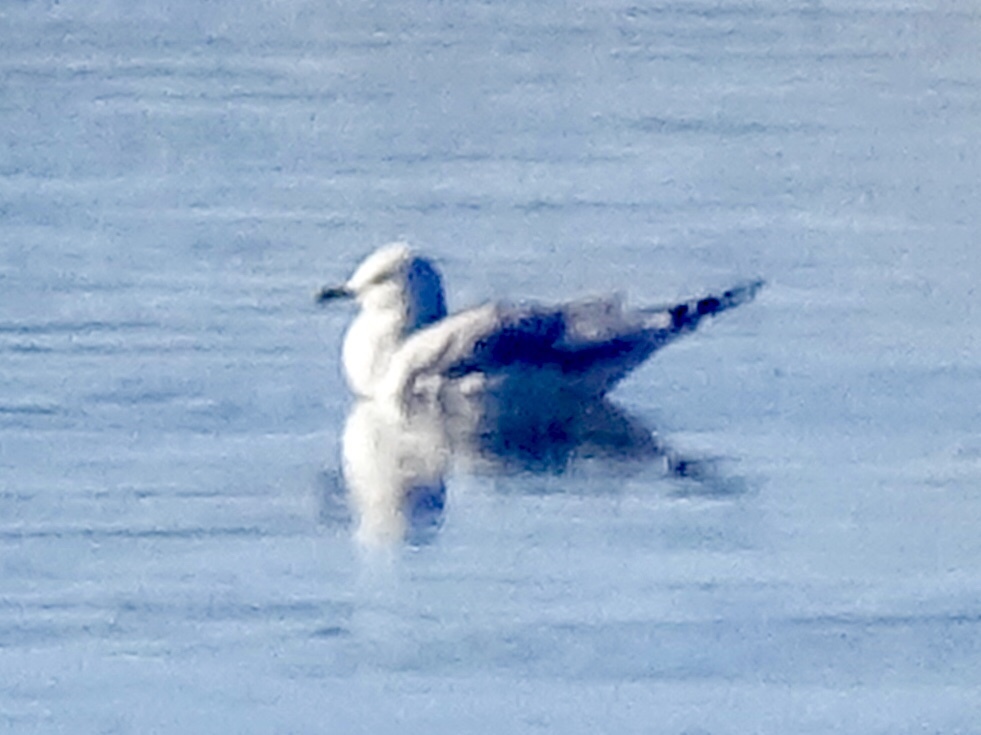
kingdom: Animalia
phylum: Chordata
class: Aves
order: Charadriiformes
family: Laridae
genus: Larus
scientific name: Larus delawarensis
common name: Ring-billed gull
